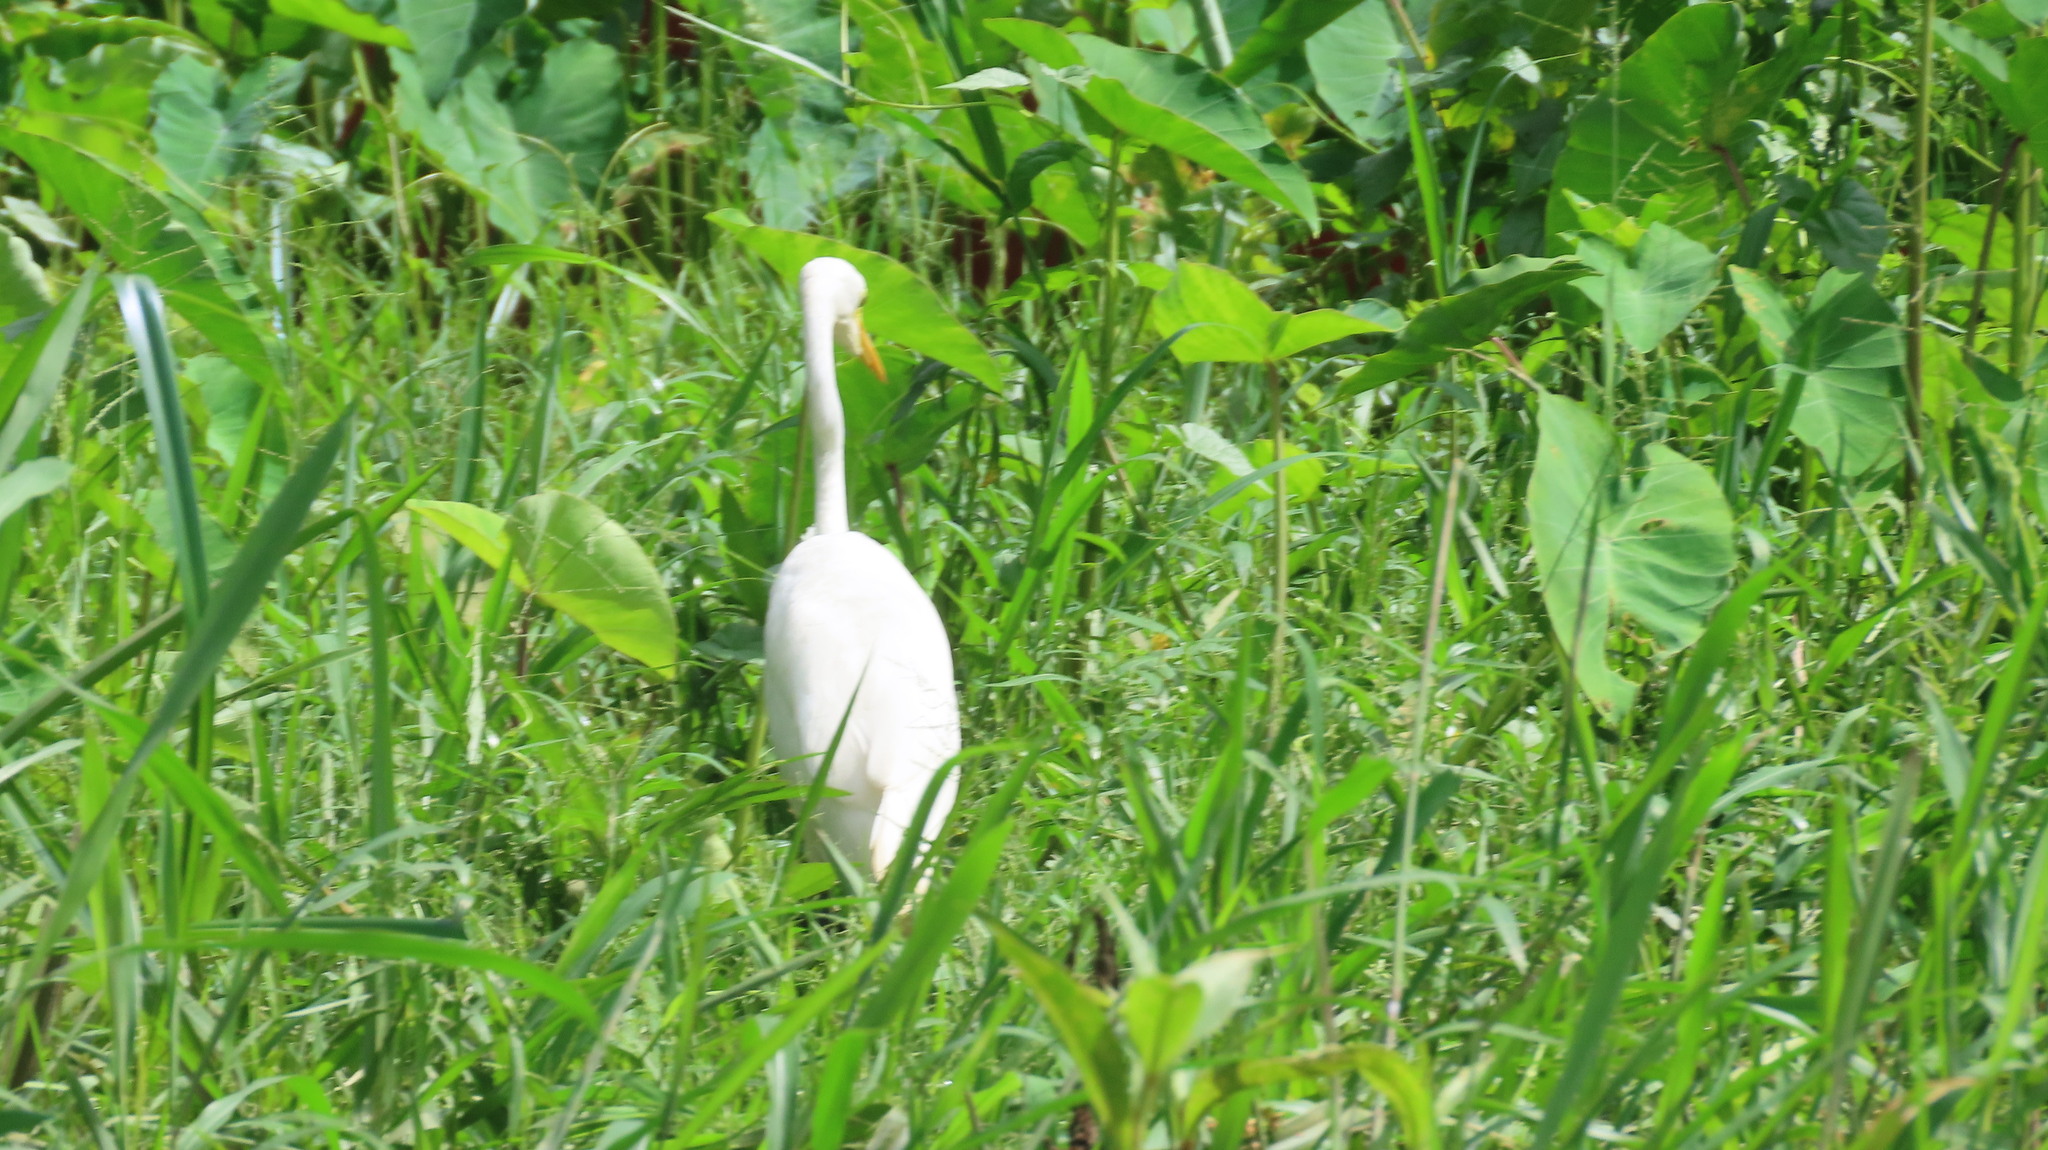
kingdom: Animalia
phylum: Chordata
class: Aves
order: Pelecaniformes
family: Ardeidae
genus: Egretta
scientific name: Egretta intermedia
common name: Intermediate egret
